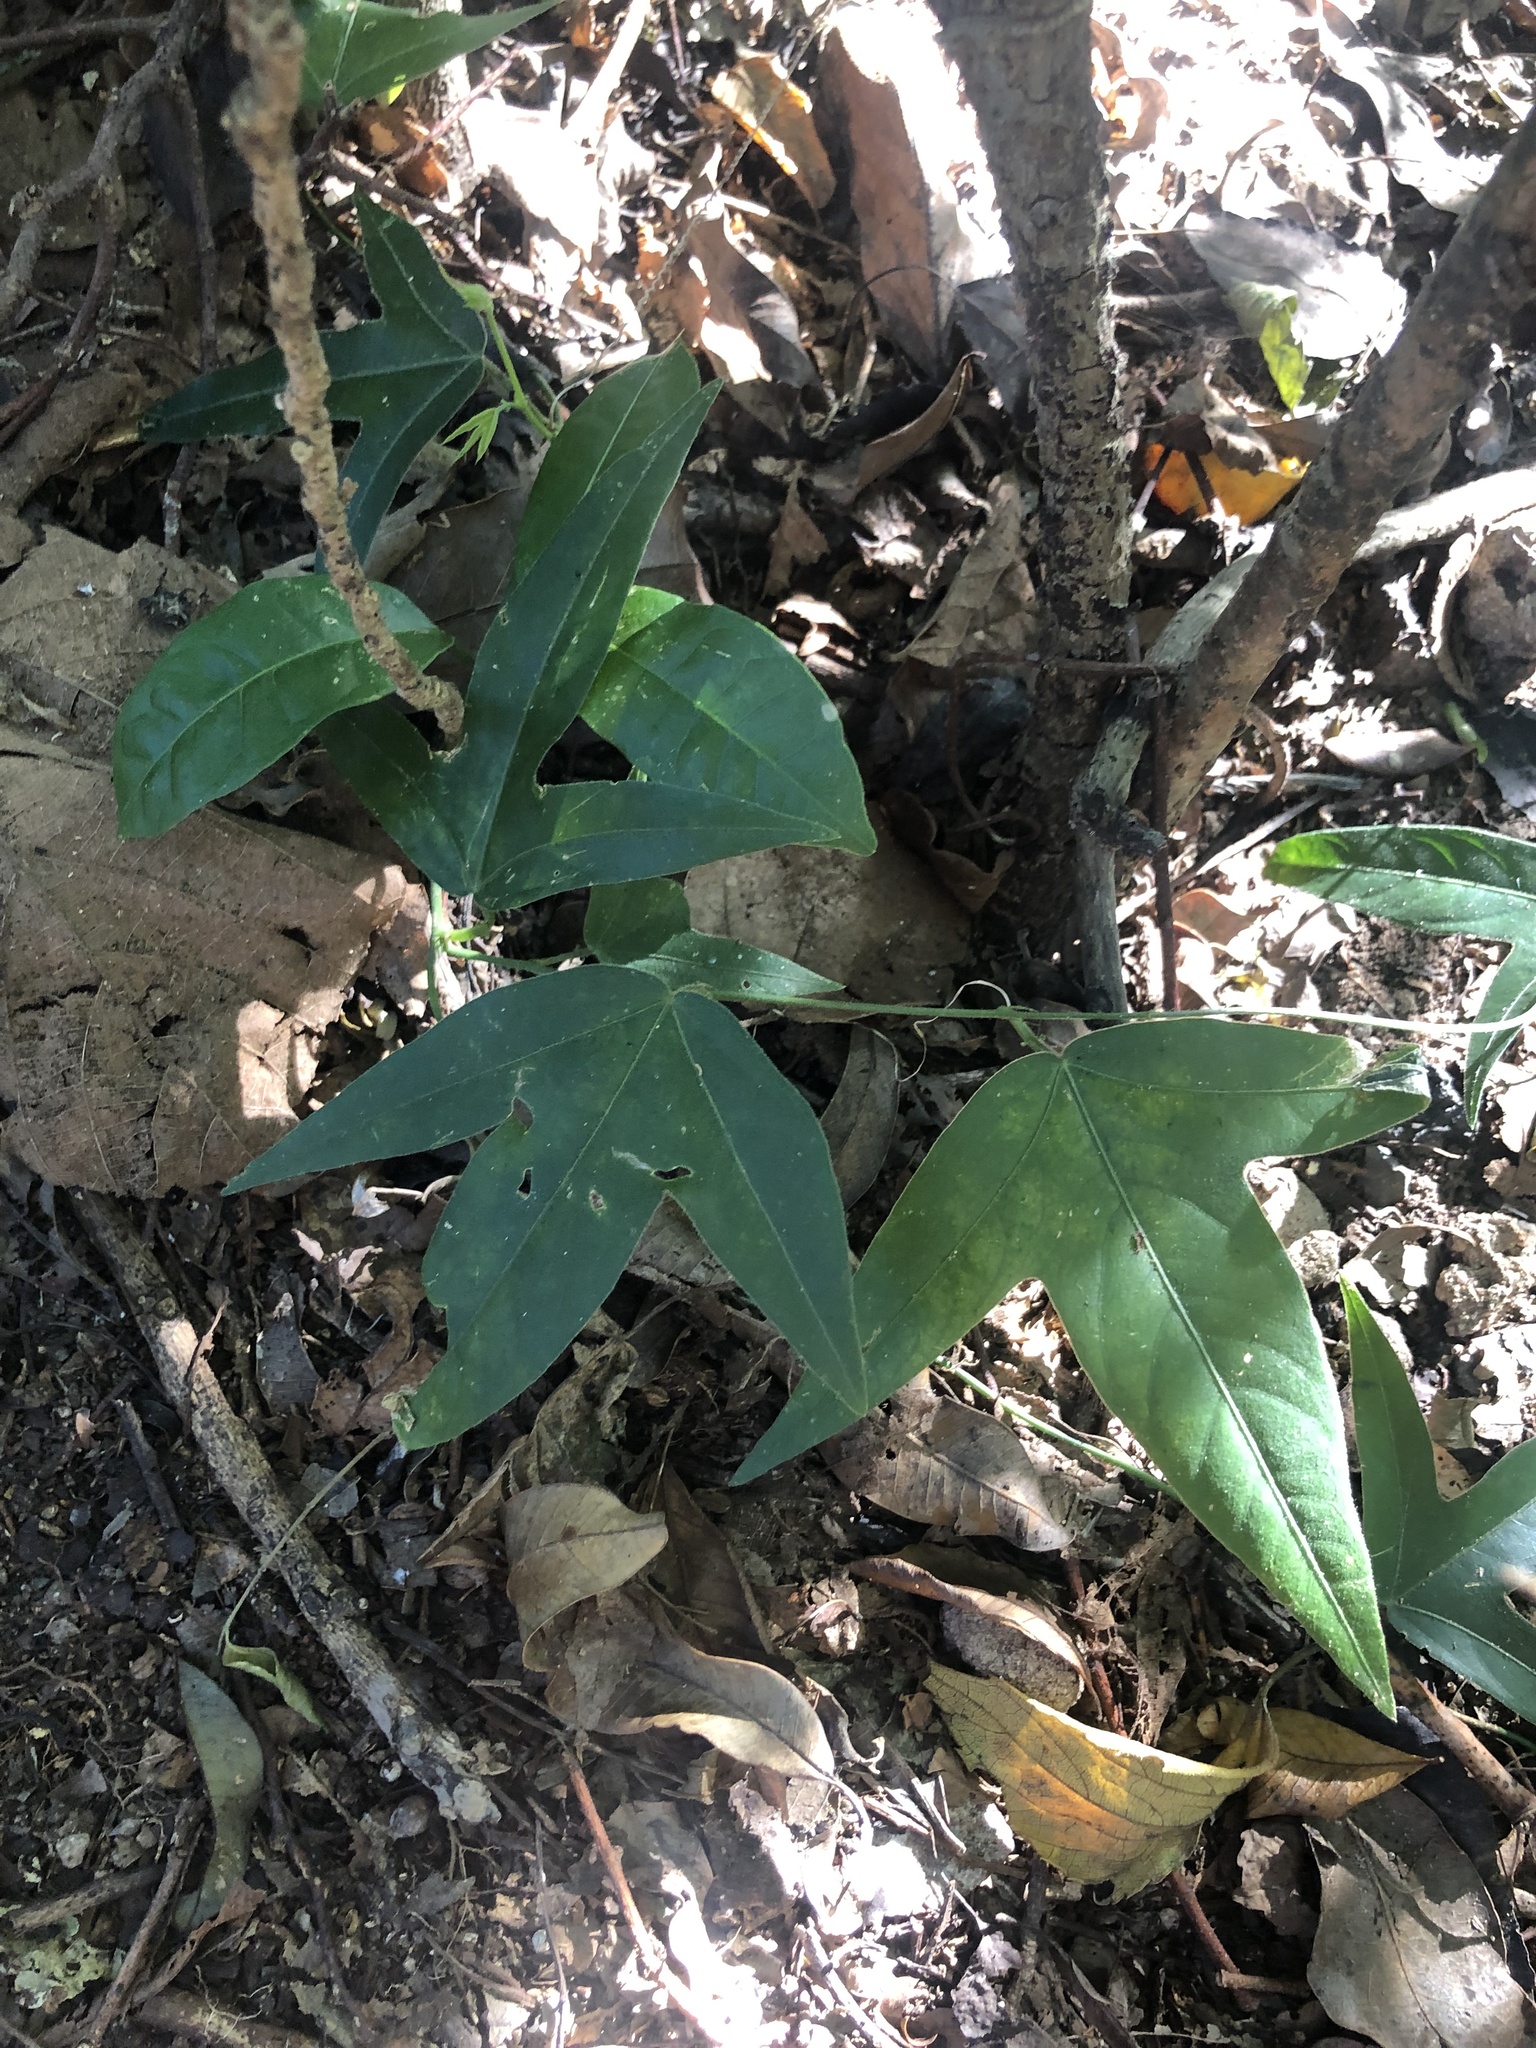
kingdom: Plantae
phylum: Tracheophyta
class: Magnoliopsida
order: Malpighiales
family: Passifloraceae
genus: Passiflora
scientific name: Passiflora suberosa
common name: Wild passionfruit
